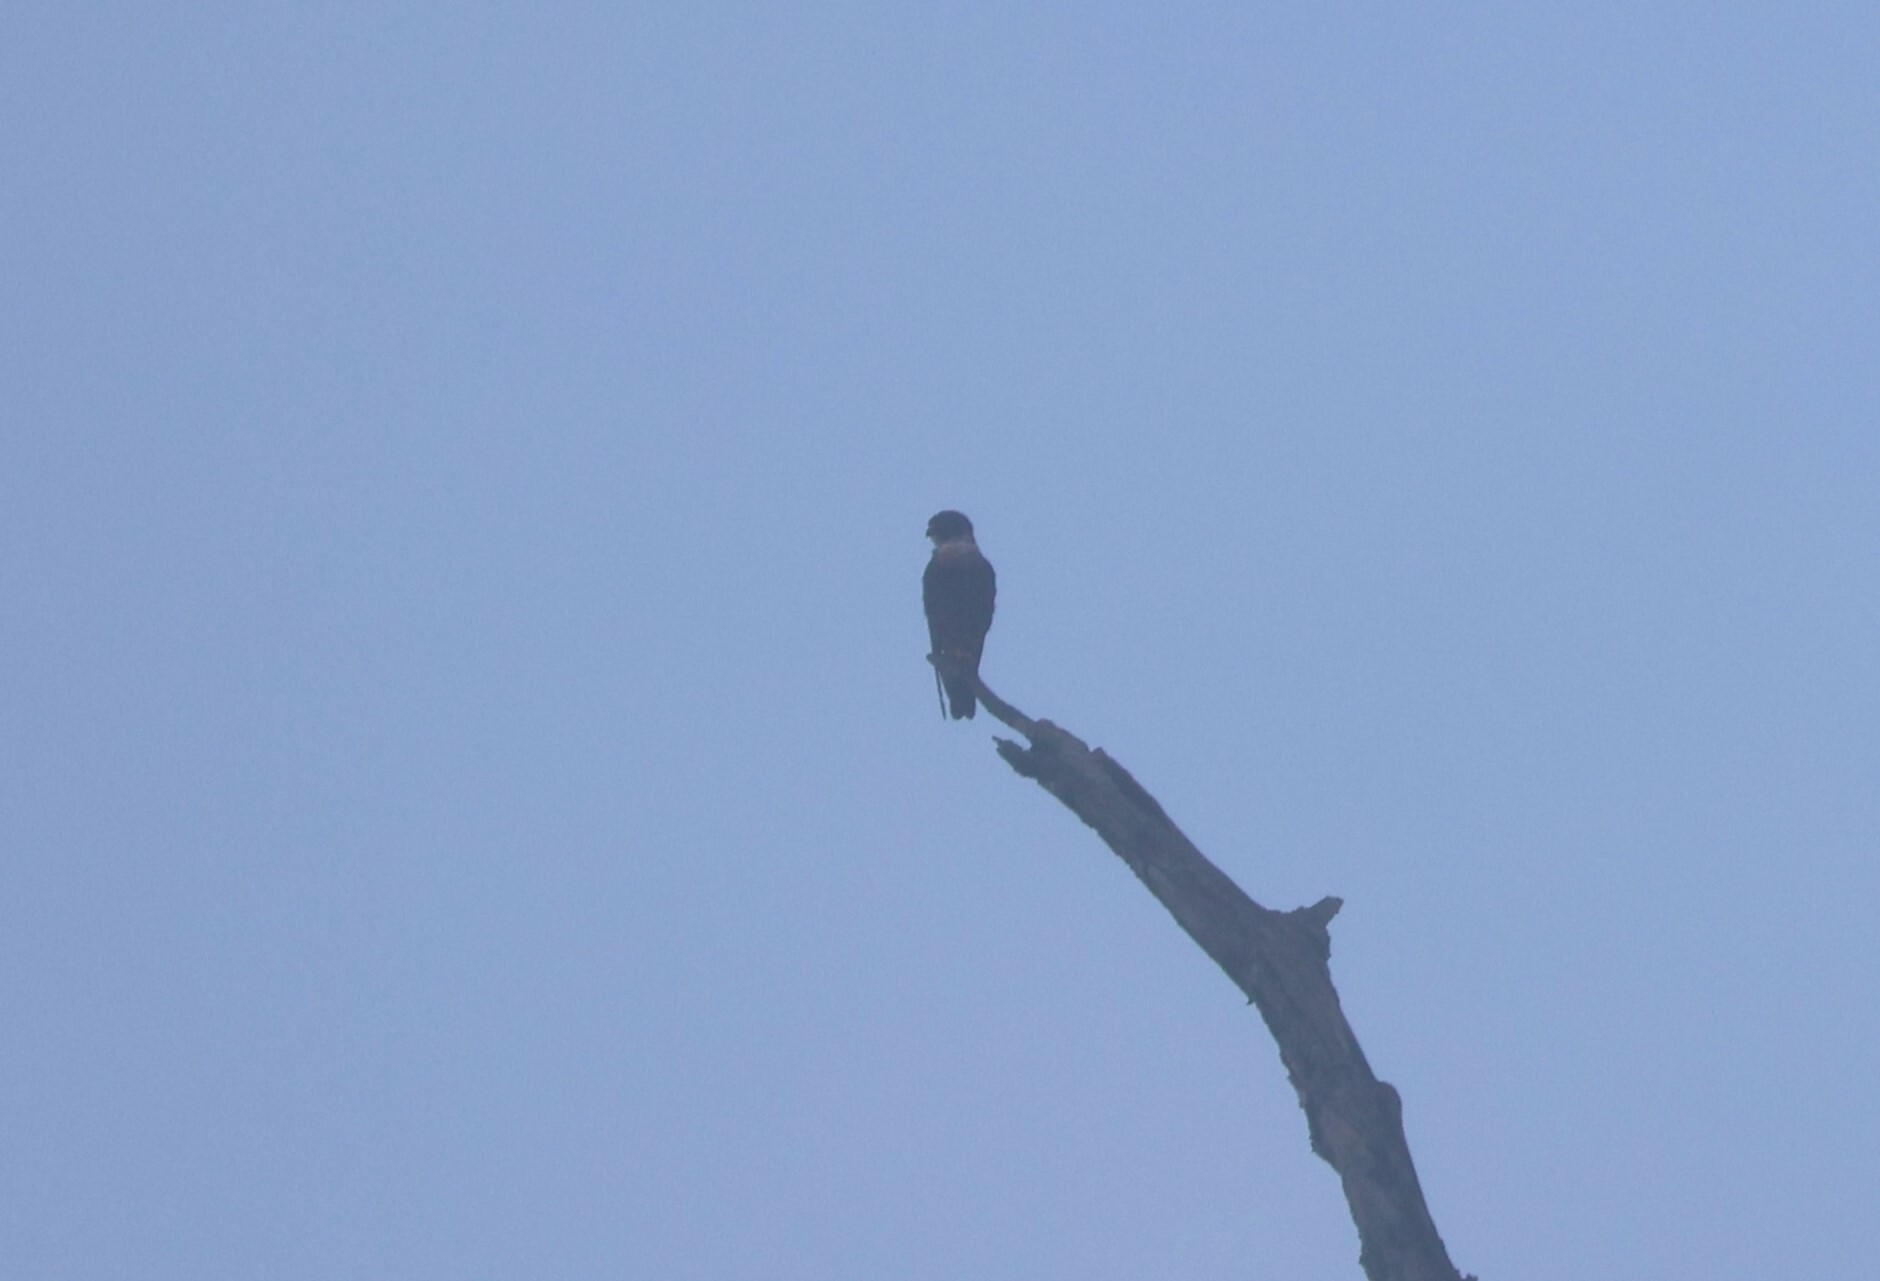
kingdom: Animalia
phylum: Chordata
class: Aves
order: Falconiformes
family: Falconidae
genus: Falco
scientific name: Falco rufigularis
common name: Bat falcon
